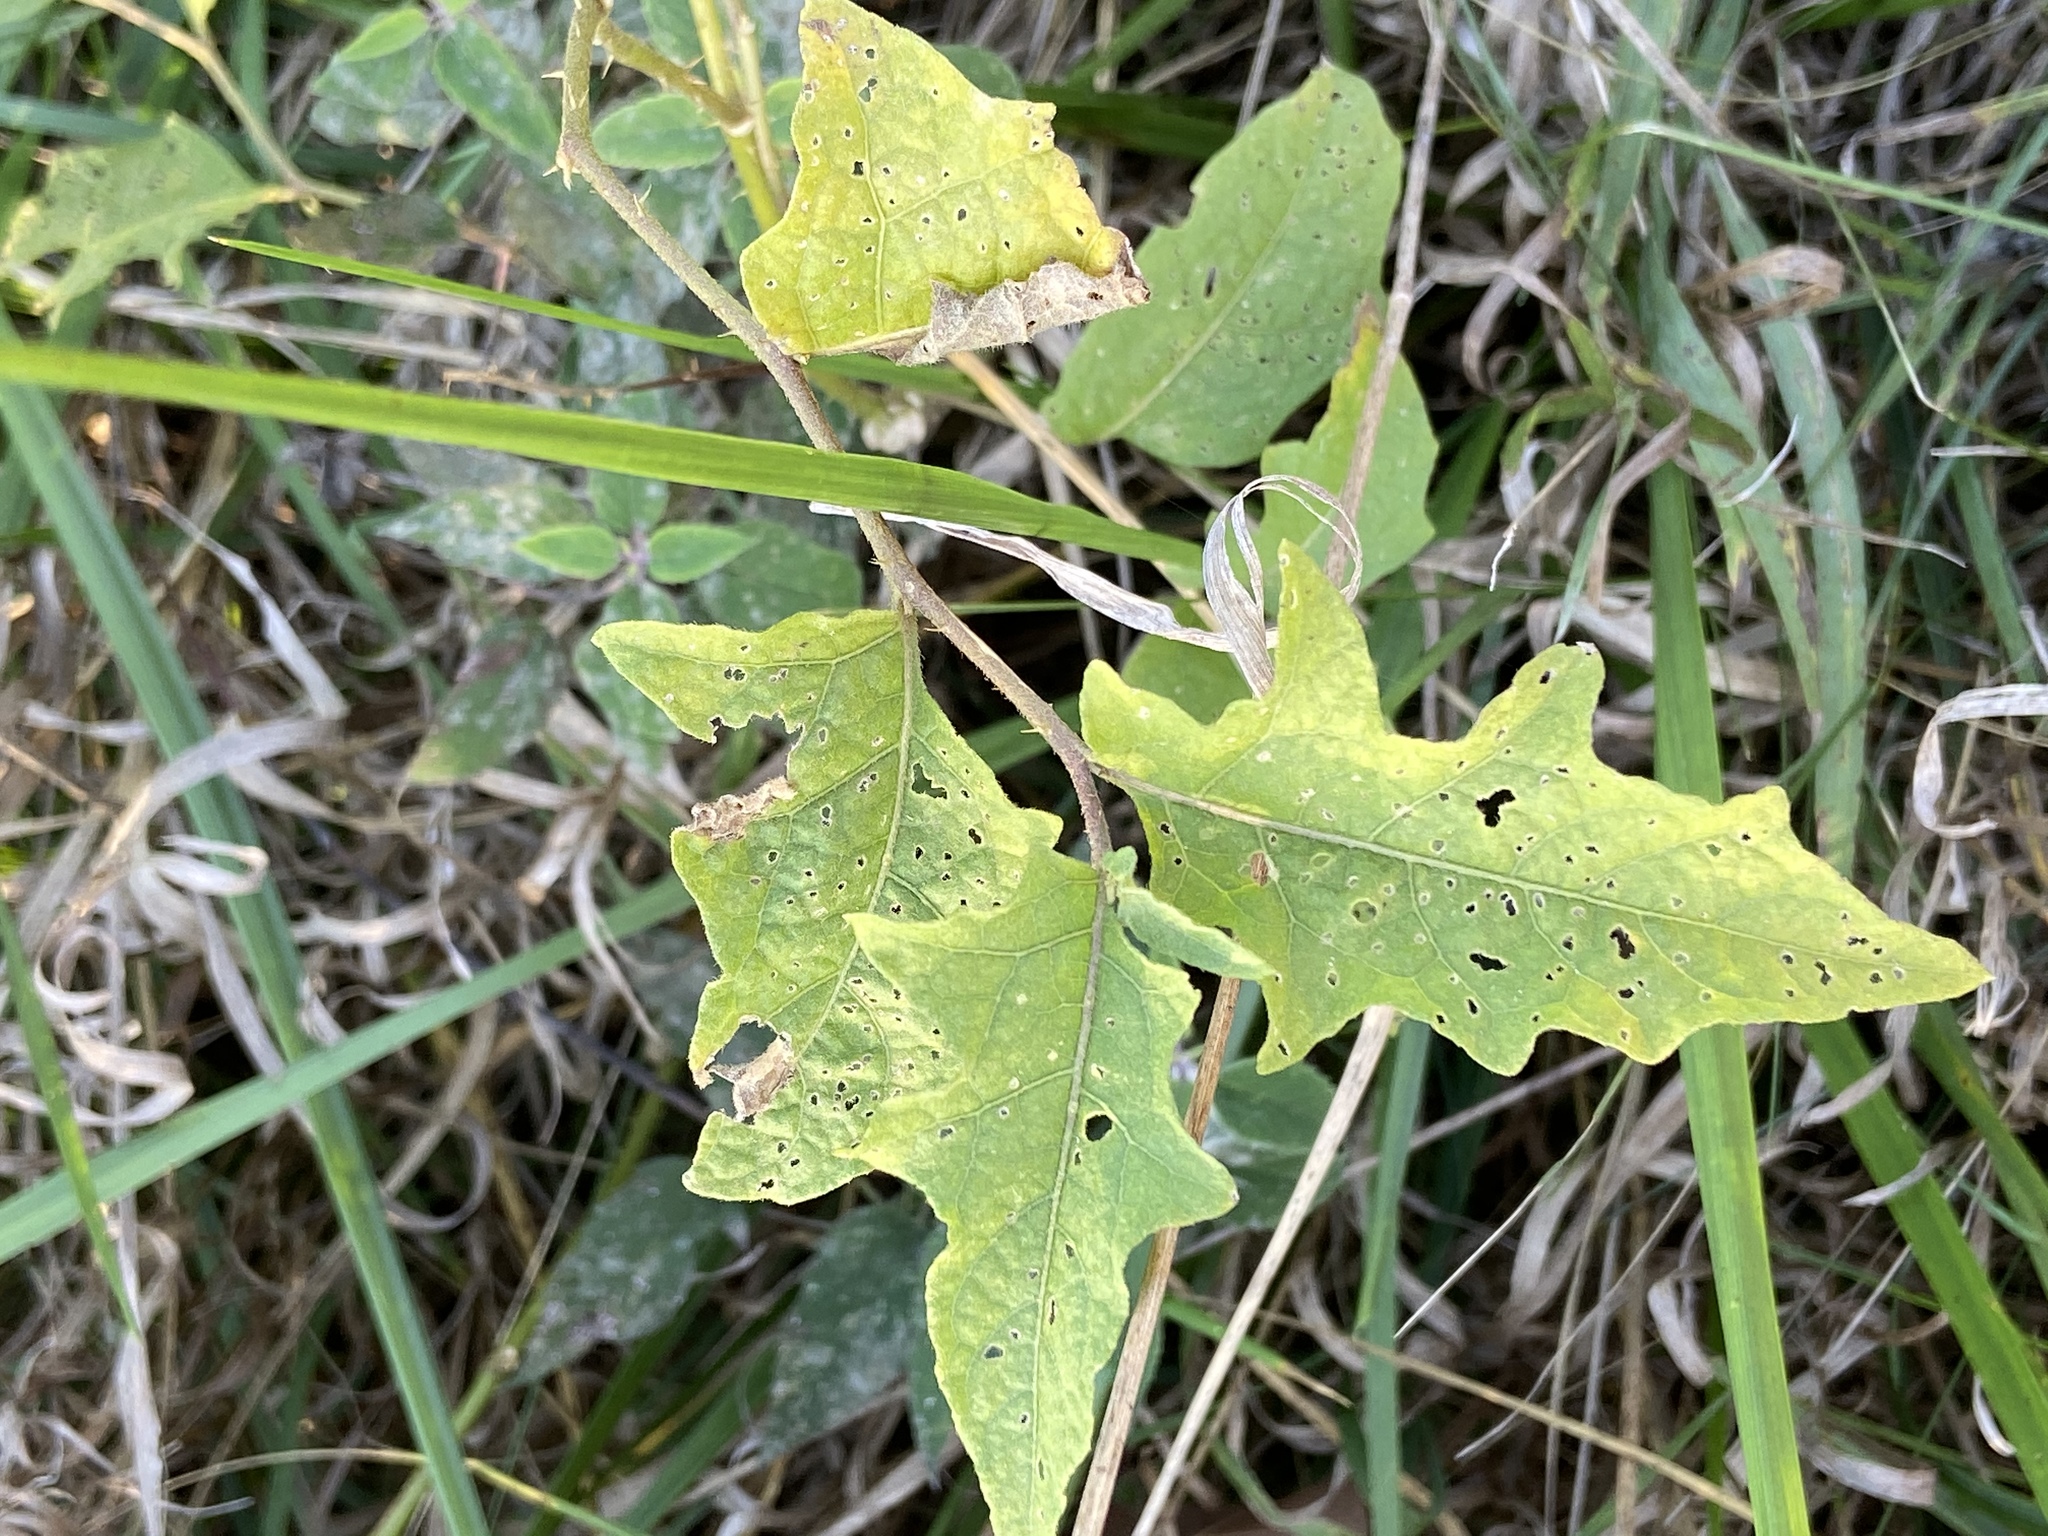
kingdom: Plantae
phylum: Tracheophyta
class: Magnoliopsida
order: Solanales
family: Solanaceae
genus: Solanum
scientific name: Solanum carolinense
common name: Horse-nettle
